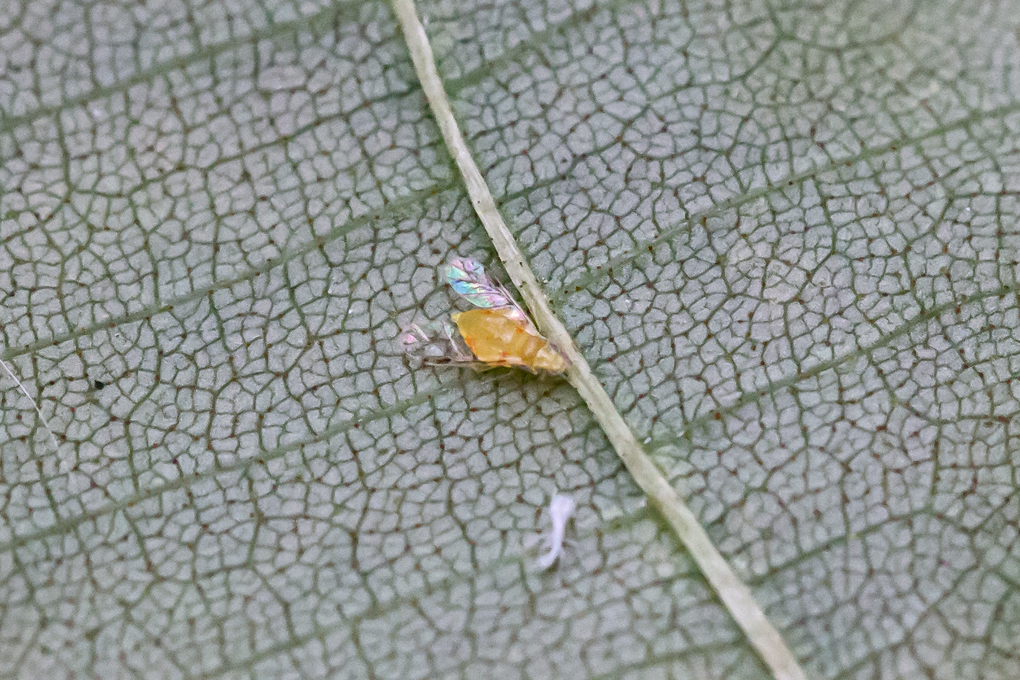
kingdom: Animalia
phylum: Arthropoda
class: Insecta
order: Hemiptera
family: Aphididae
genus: Monellia
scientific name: Monellia microsetosa
